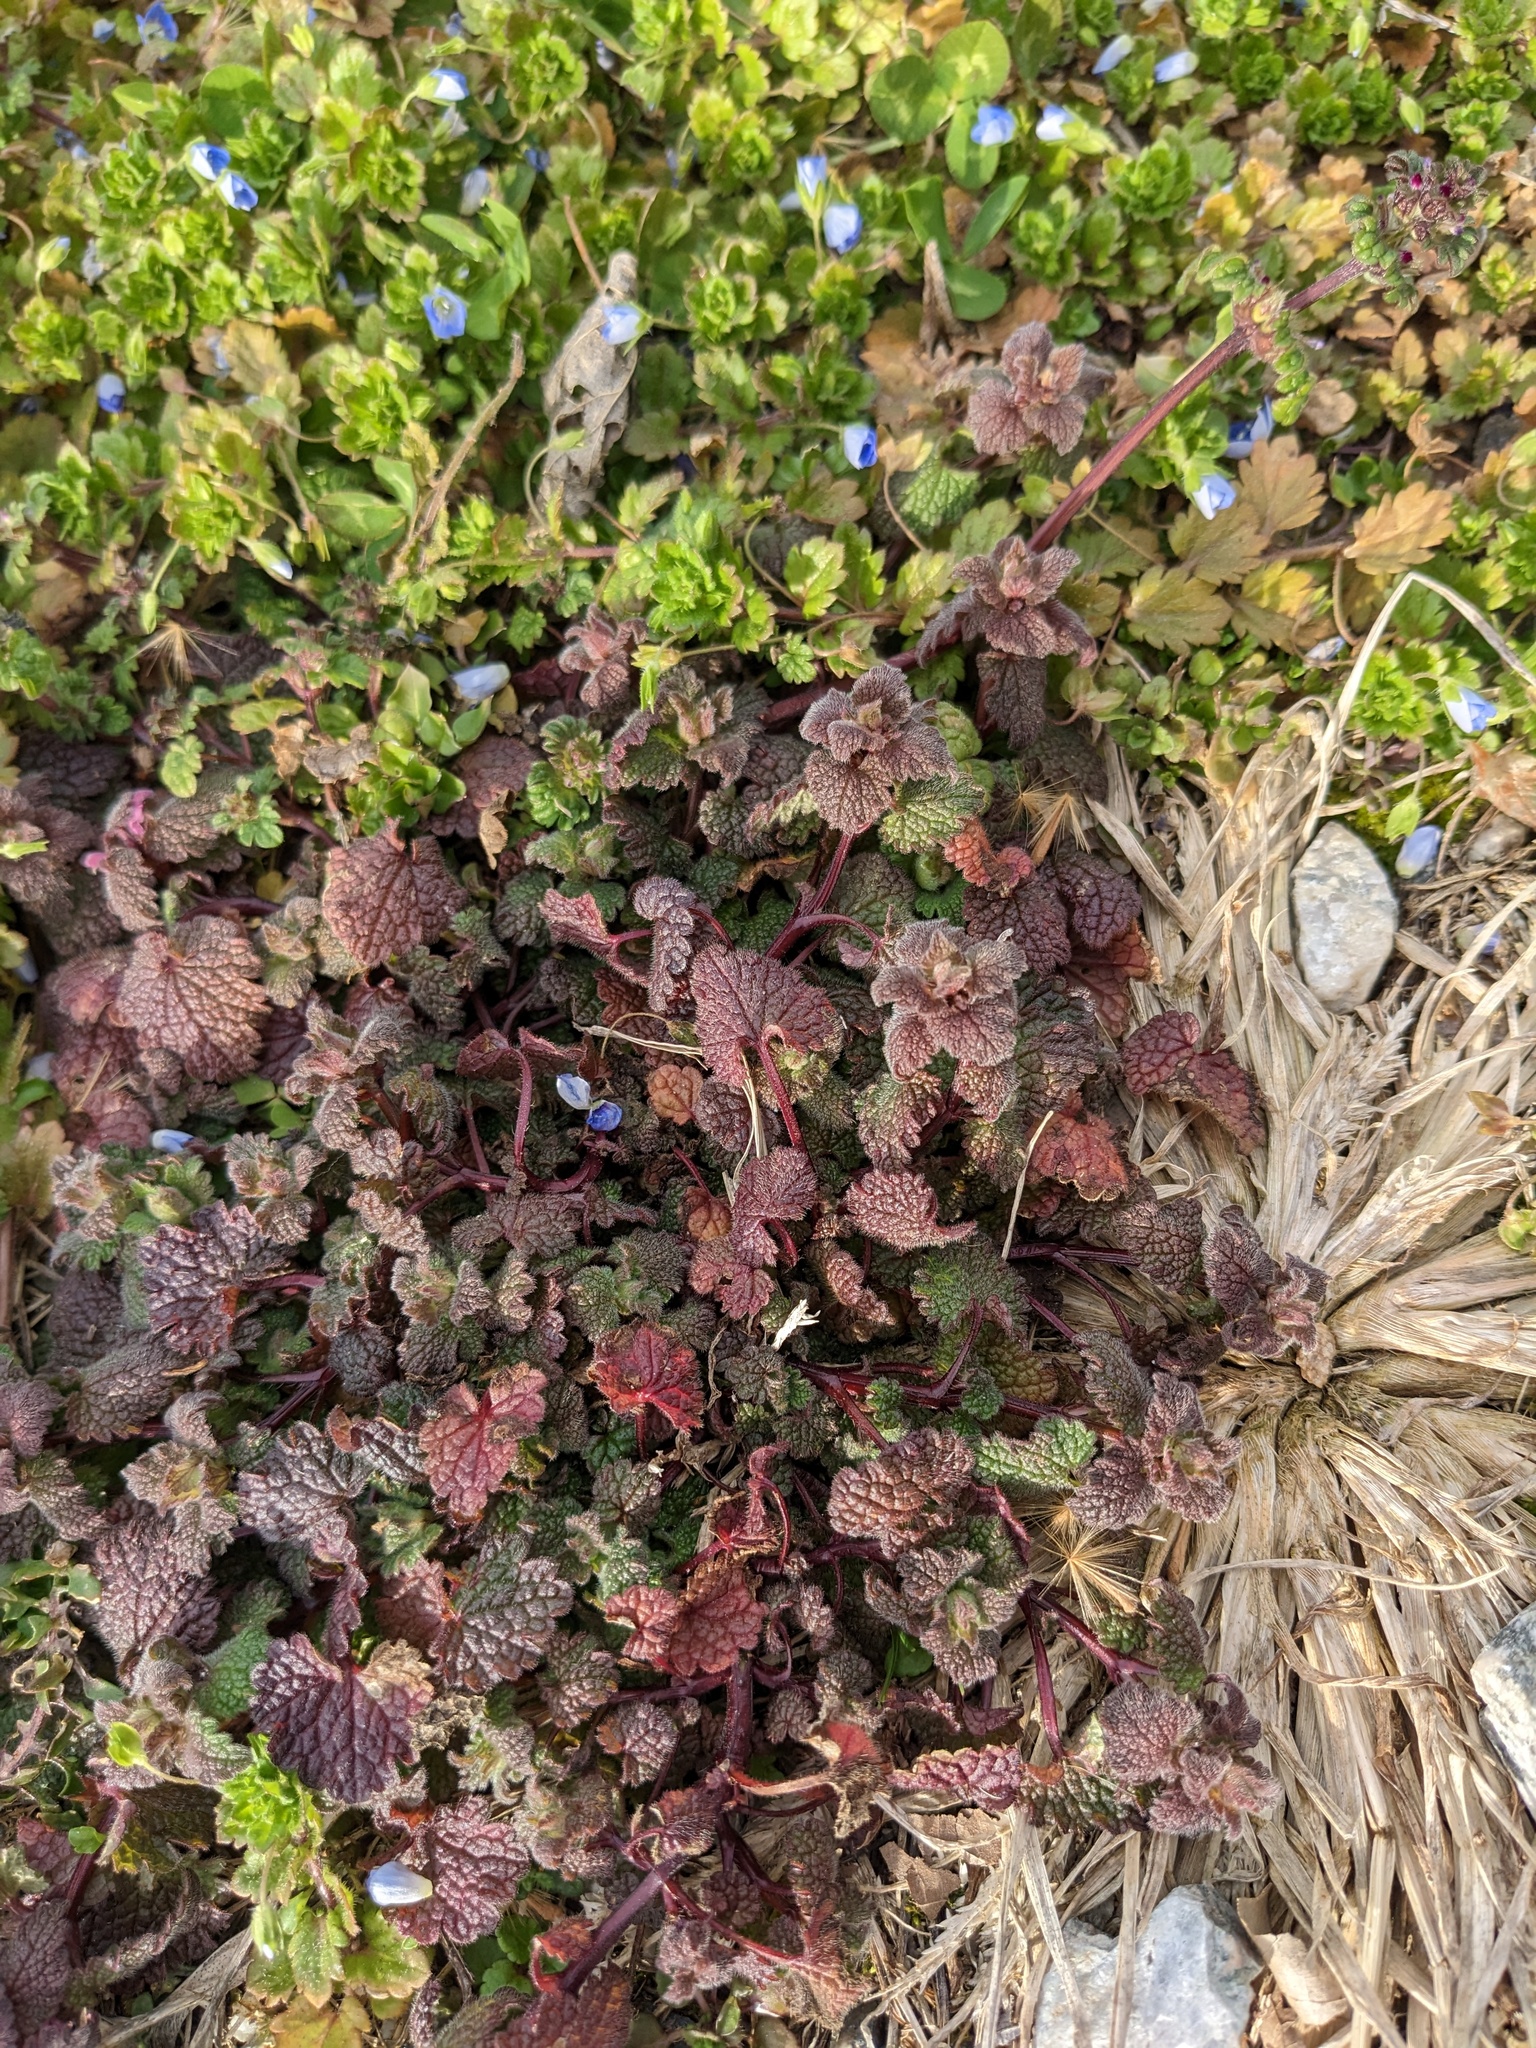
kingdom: Plantae
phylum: Tracheophyta
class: Magnoliopsida
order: Lamiales
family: Lamiaceae
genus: Lamium
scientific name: Lamium purpureum
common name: Red dead-nettle
